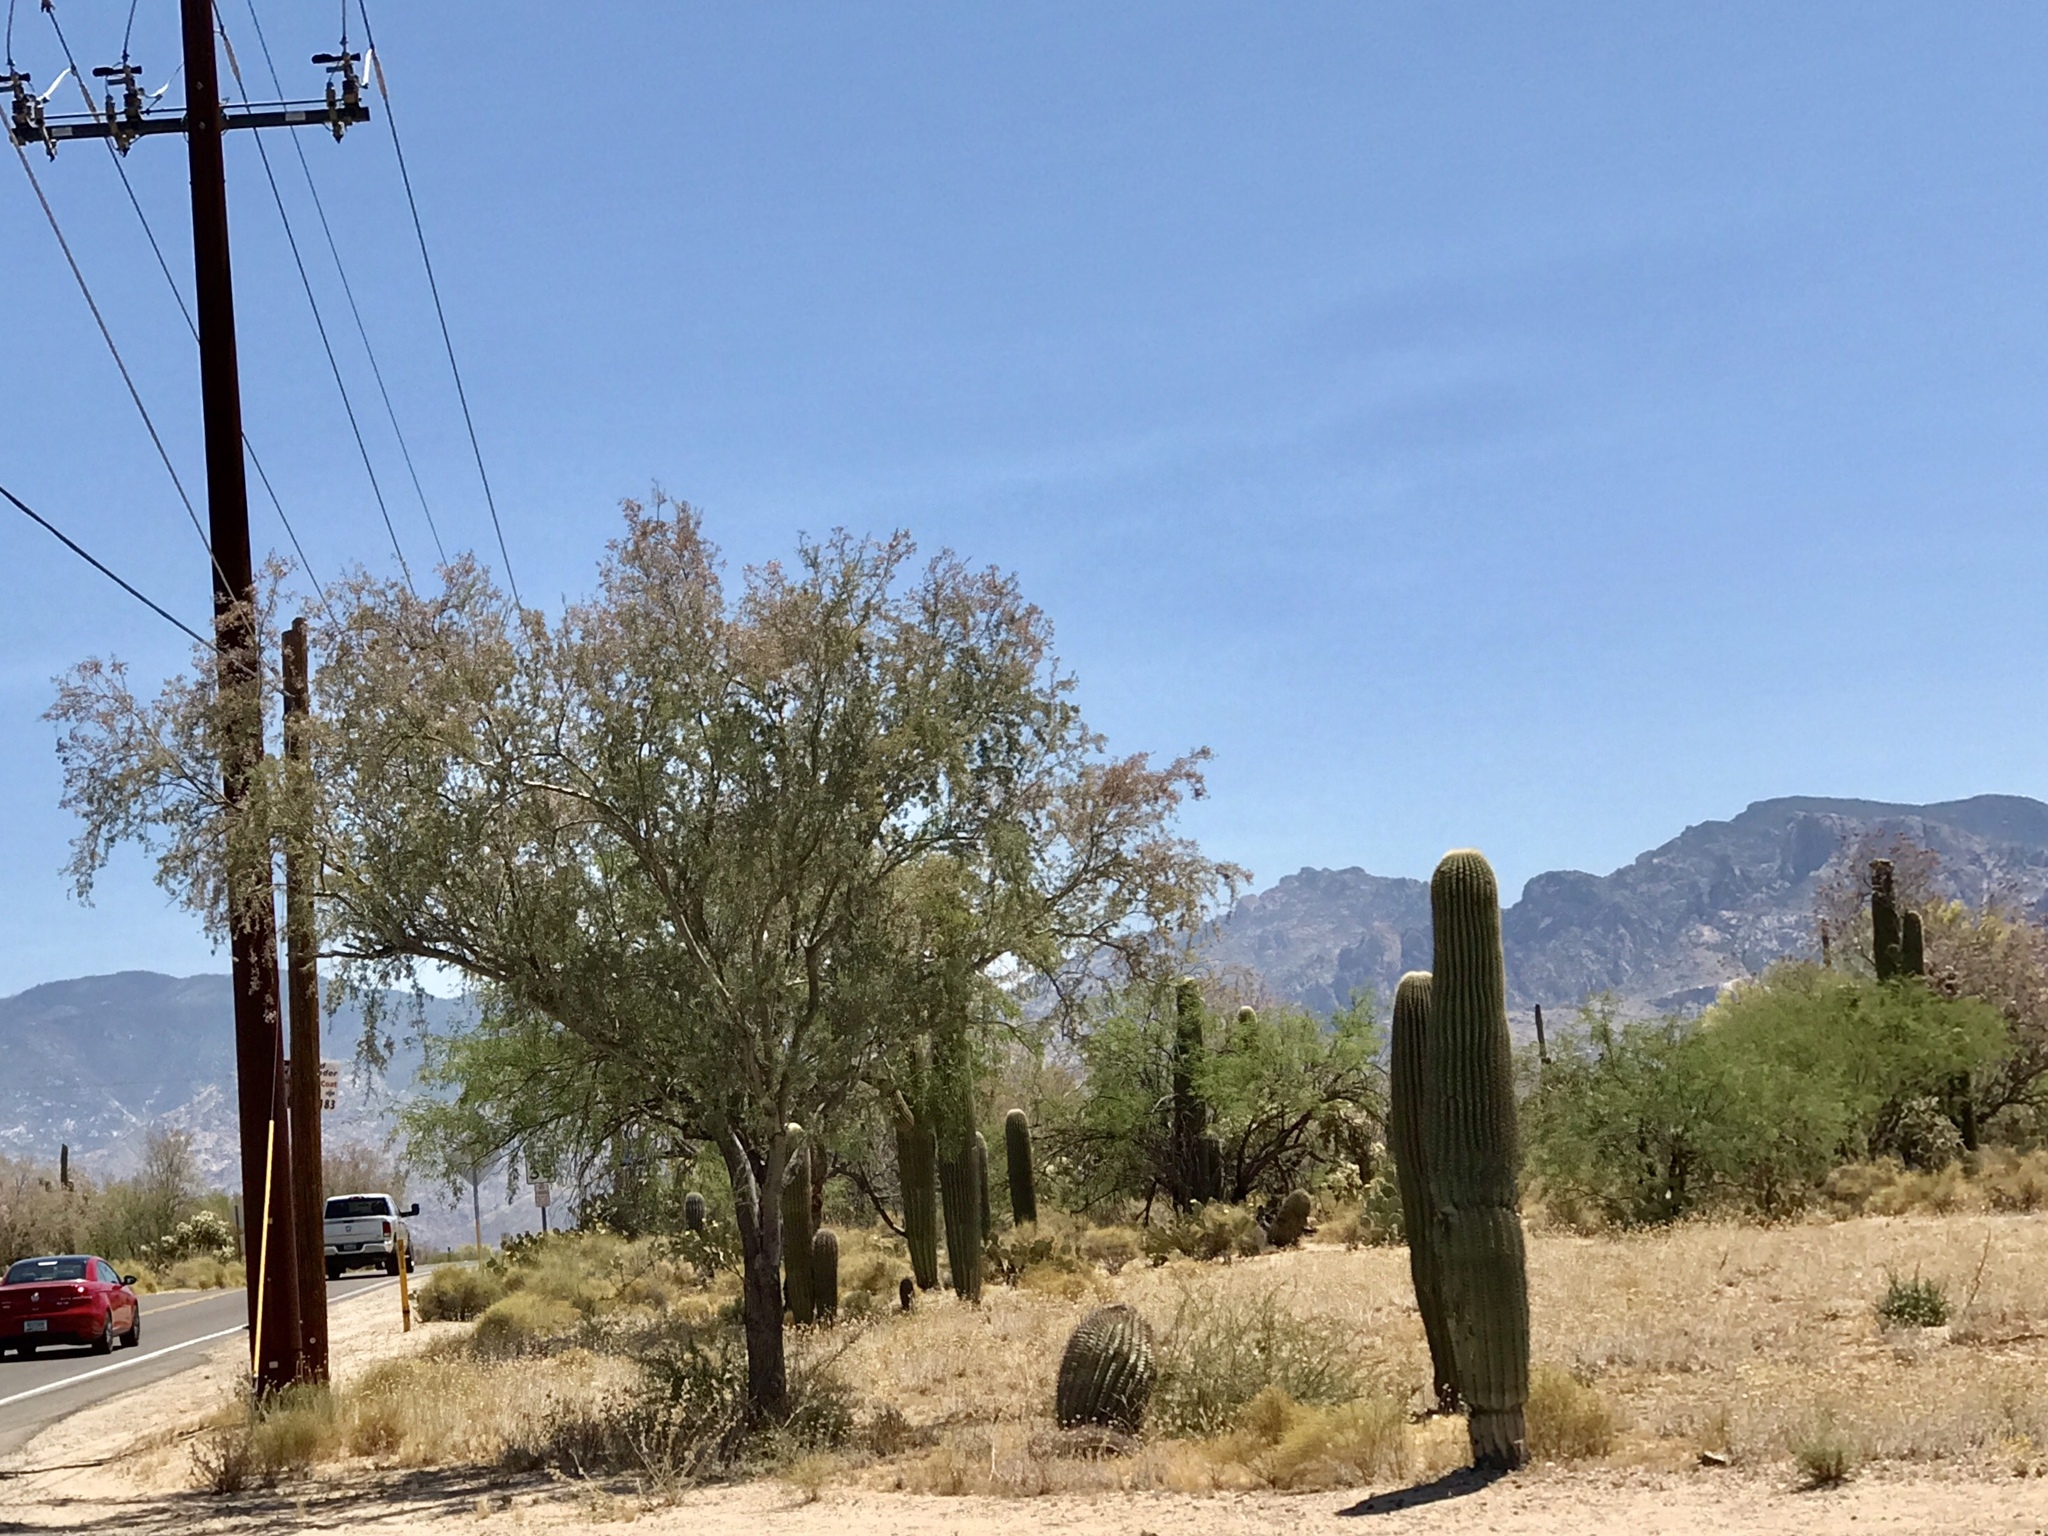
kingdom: Plantae
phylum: Tracheophyta
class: Magnoliopsida
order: Caryophyllales
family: Cactaceae
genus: Carnegiea
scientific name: Carnegiea gigantea
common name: Saguaro
